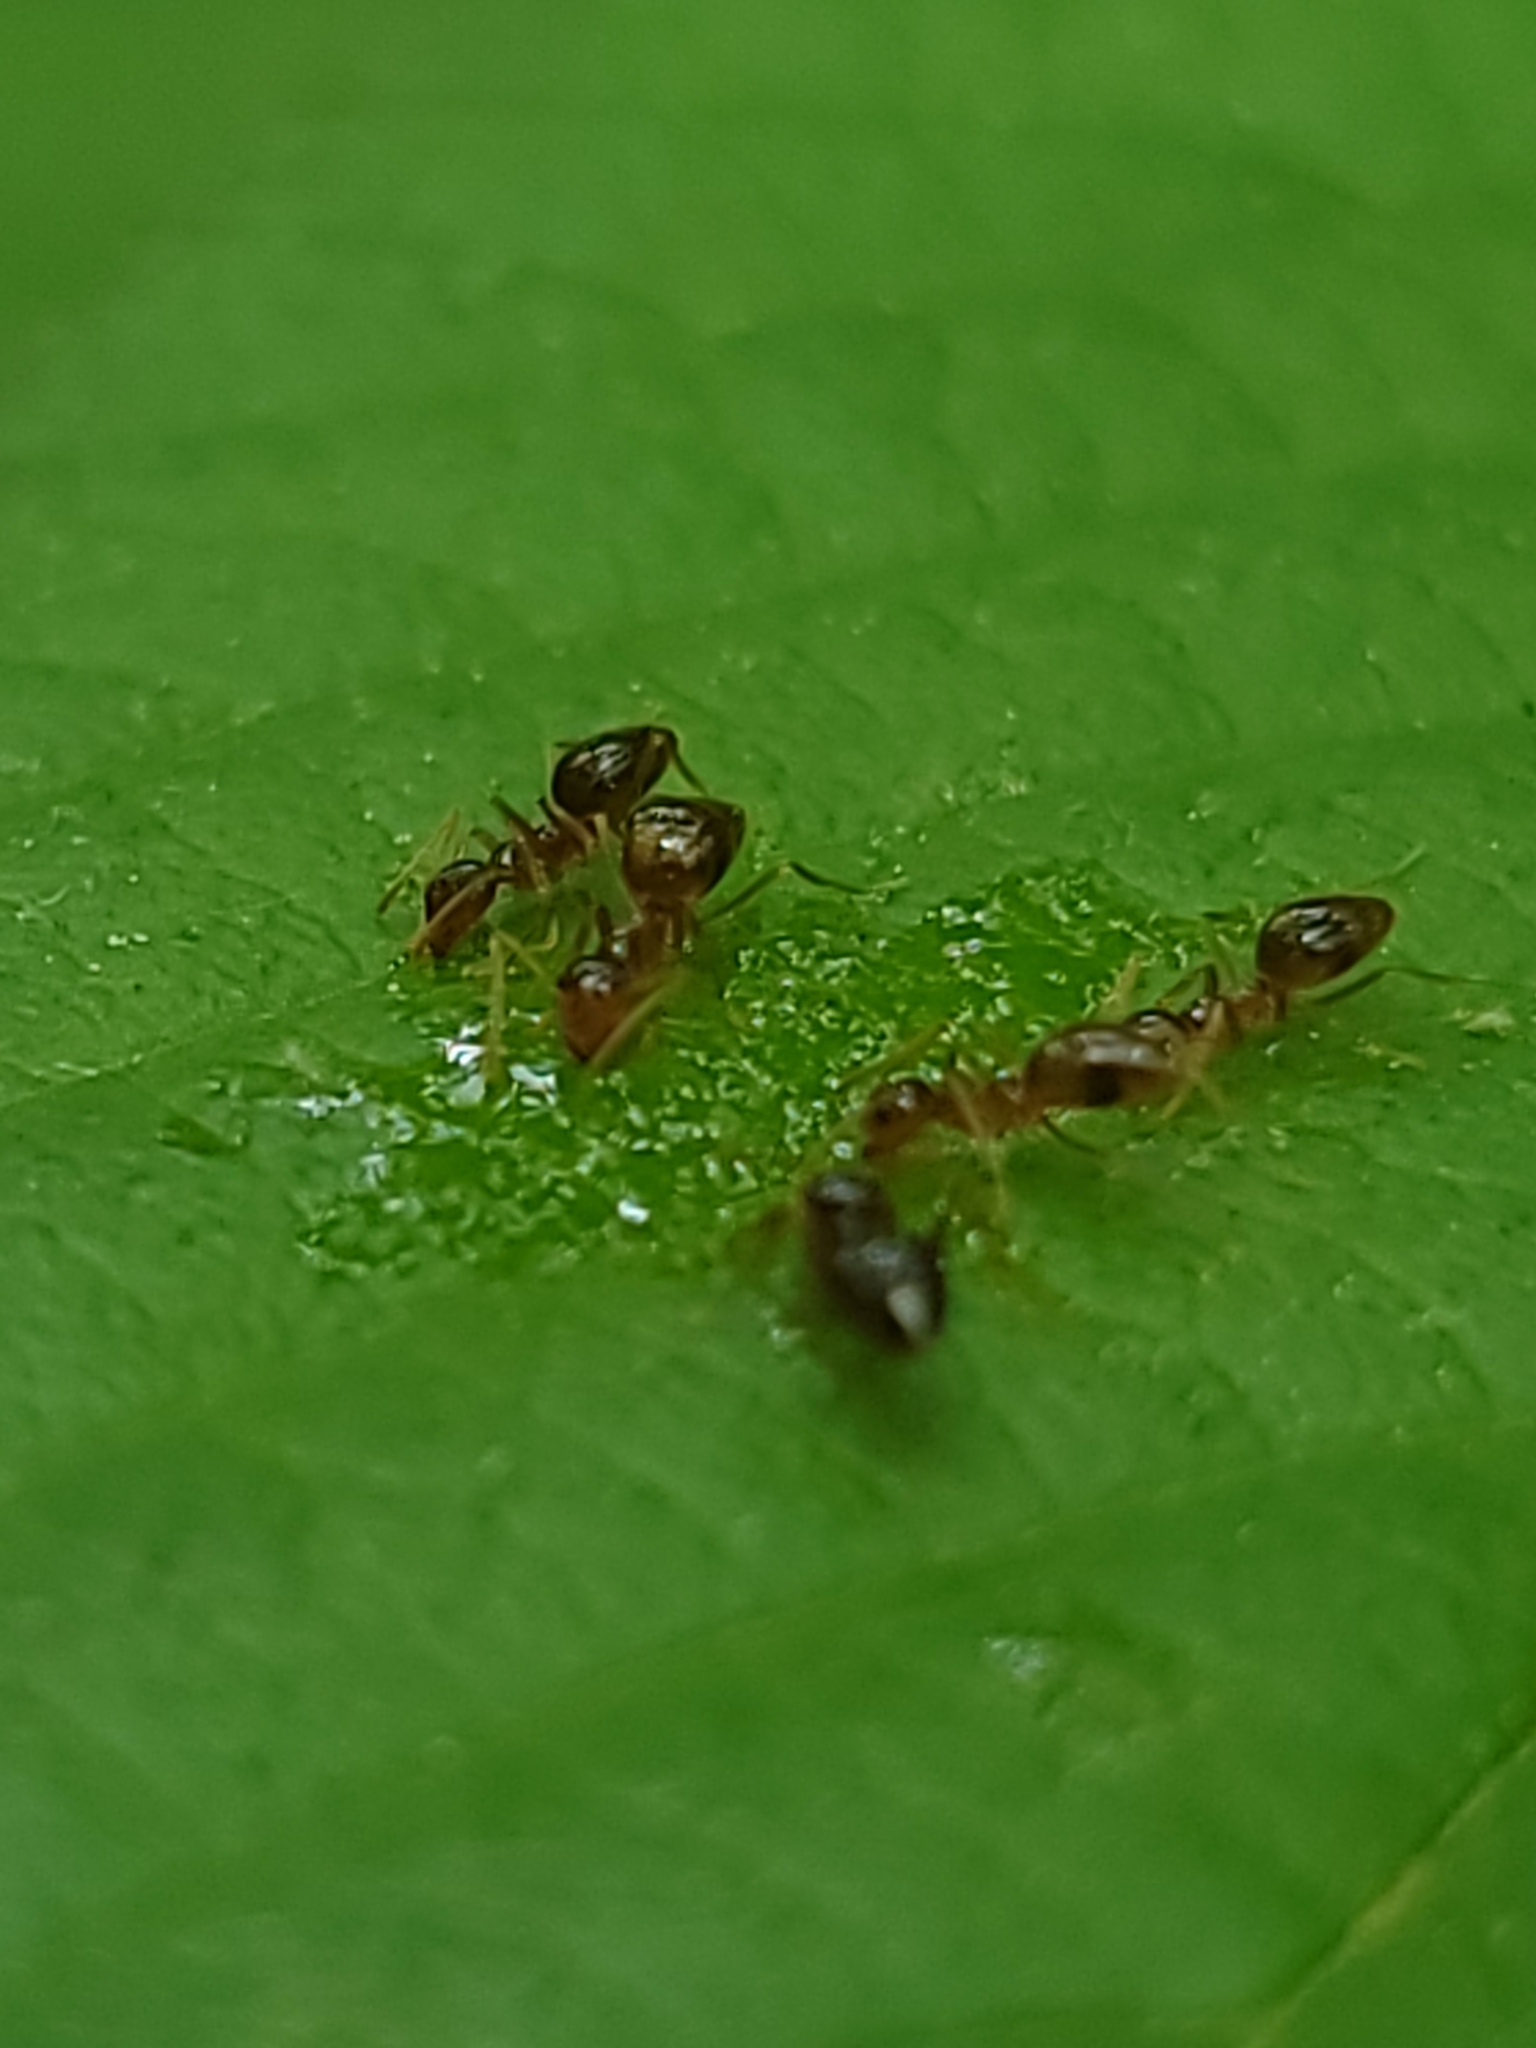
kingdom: Animalia
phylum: Arthropoda
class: Insecta
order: Hymenoptera
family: Formicidae
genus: Prenolepis
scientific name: Prenolepis imparis
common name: Small honey ant
